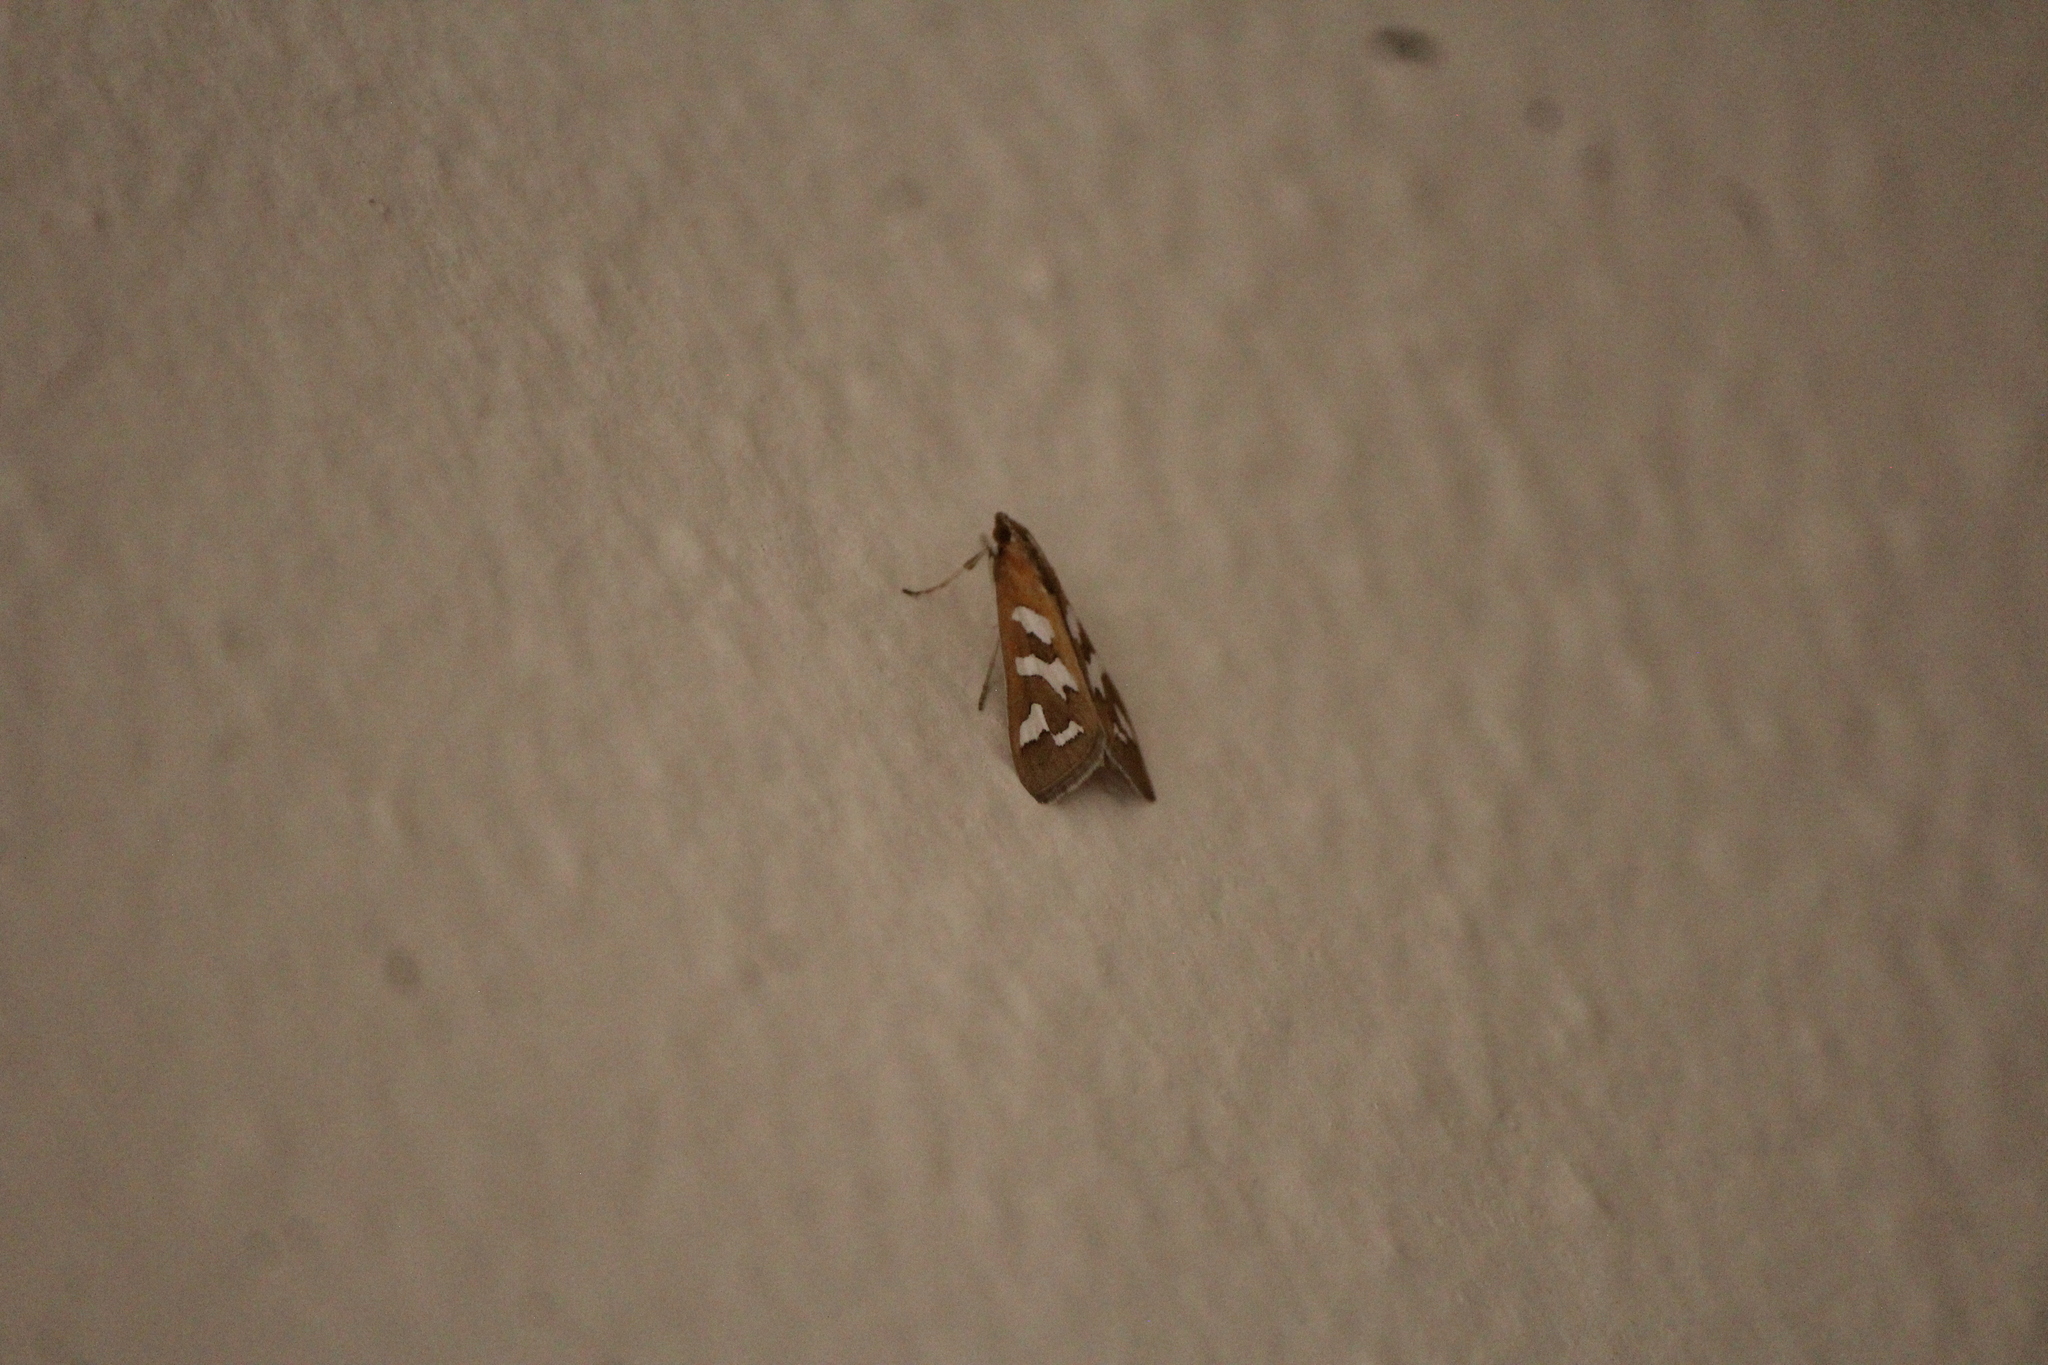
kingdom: Animalia
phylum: Arthropoda
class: Insecta
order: Lepidoptera
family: Crambidae
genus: Diastictis
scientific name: Diastictis fracturalis
